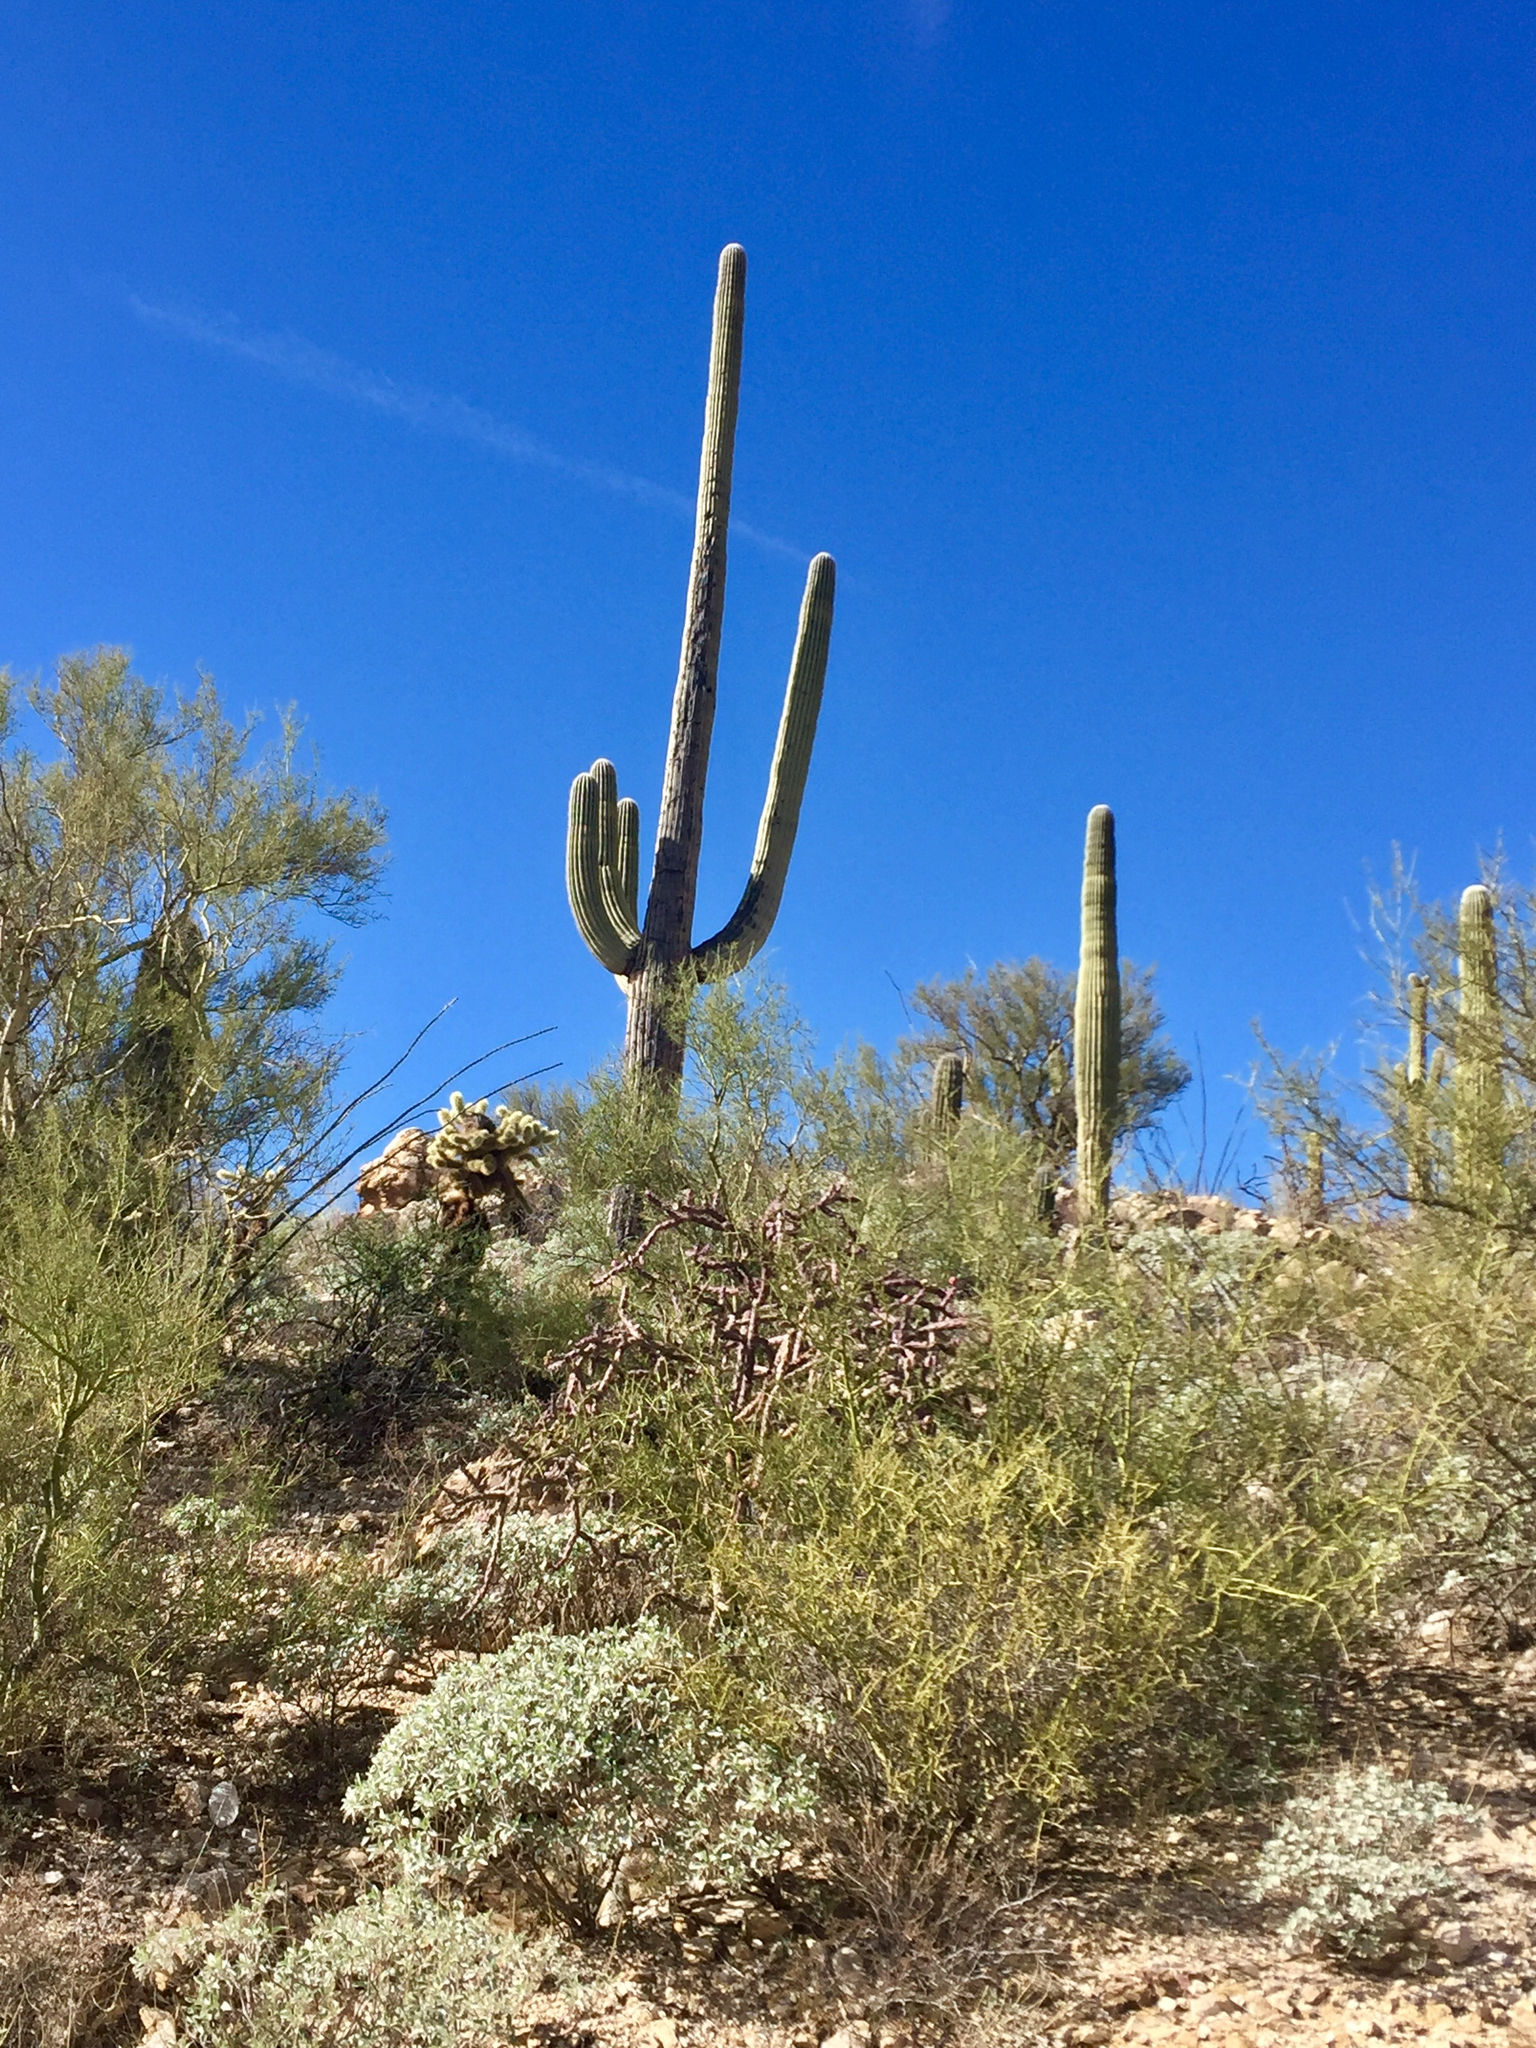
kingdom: Plantae
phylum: Tracheophyta
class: Magnoliopsida
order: Caryophyllales
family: Cactaceae
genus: Carnegiea
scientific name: Carnegiea gigantea
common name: Saguaro
